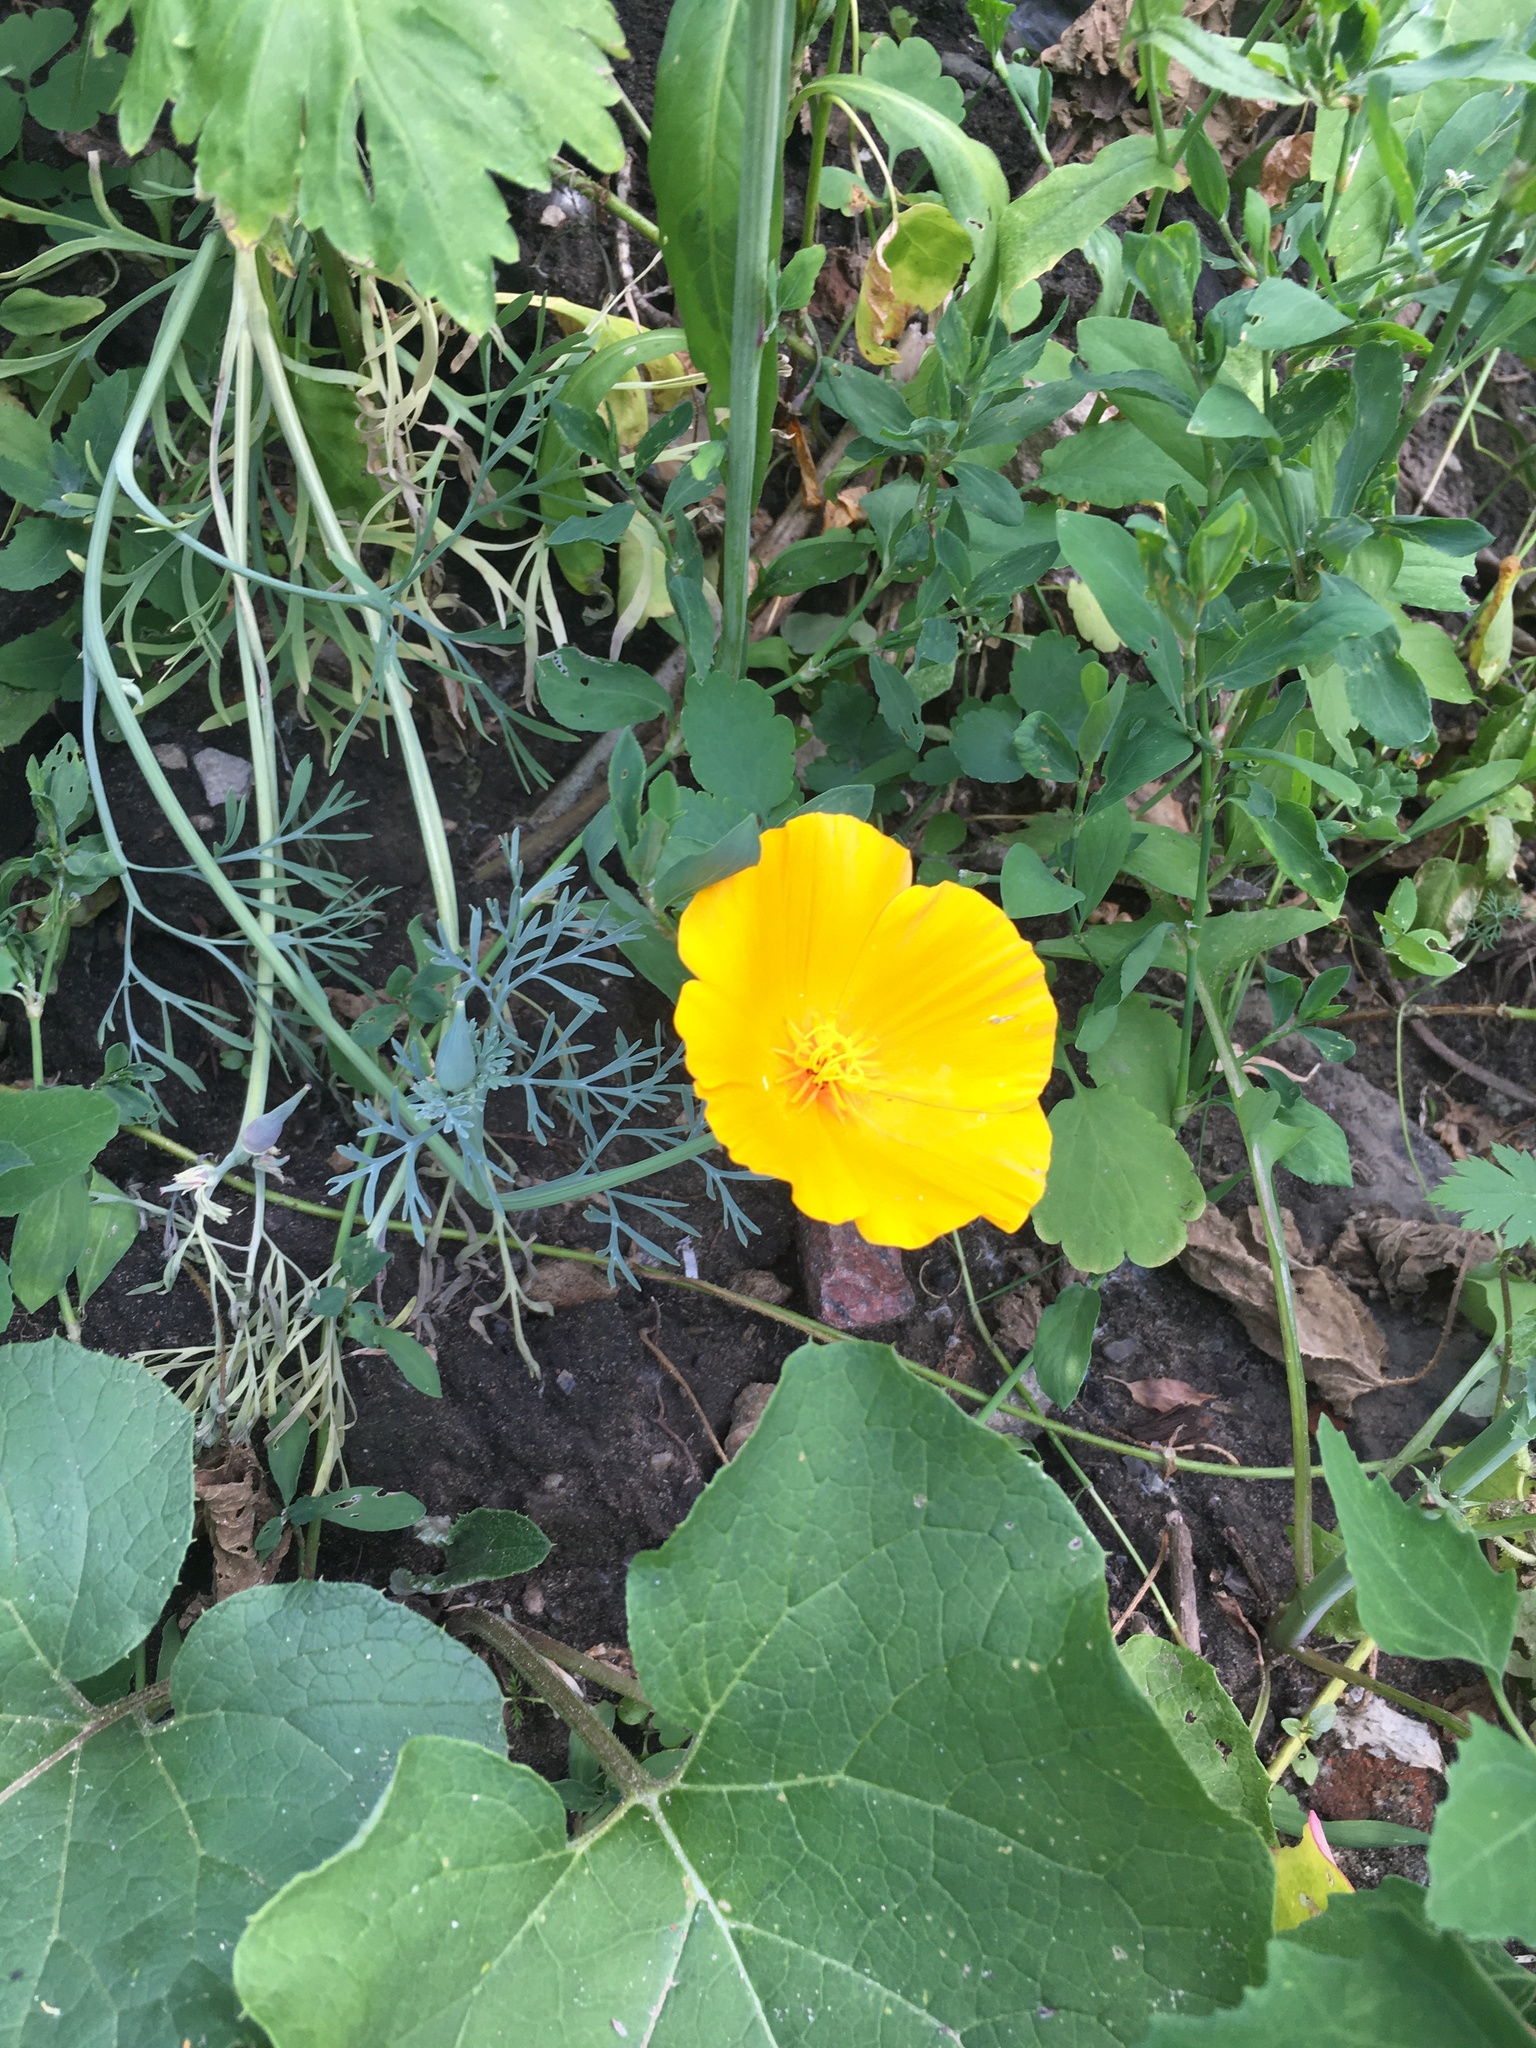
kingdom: Plantae
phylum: Tracheophyta
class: Magnoliopsida
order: Ranunculales
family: Papaveraceae
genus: Eschscholzia
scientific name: Eschscholzia californica
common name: California poppy
